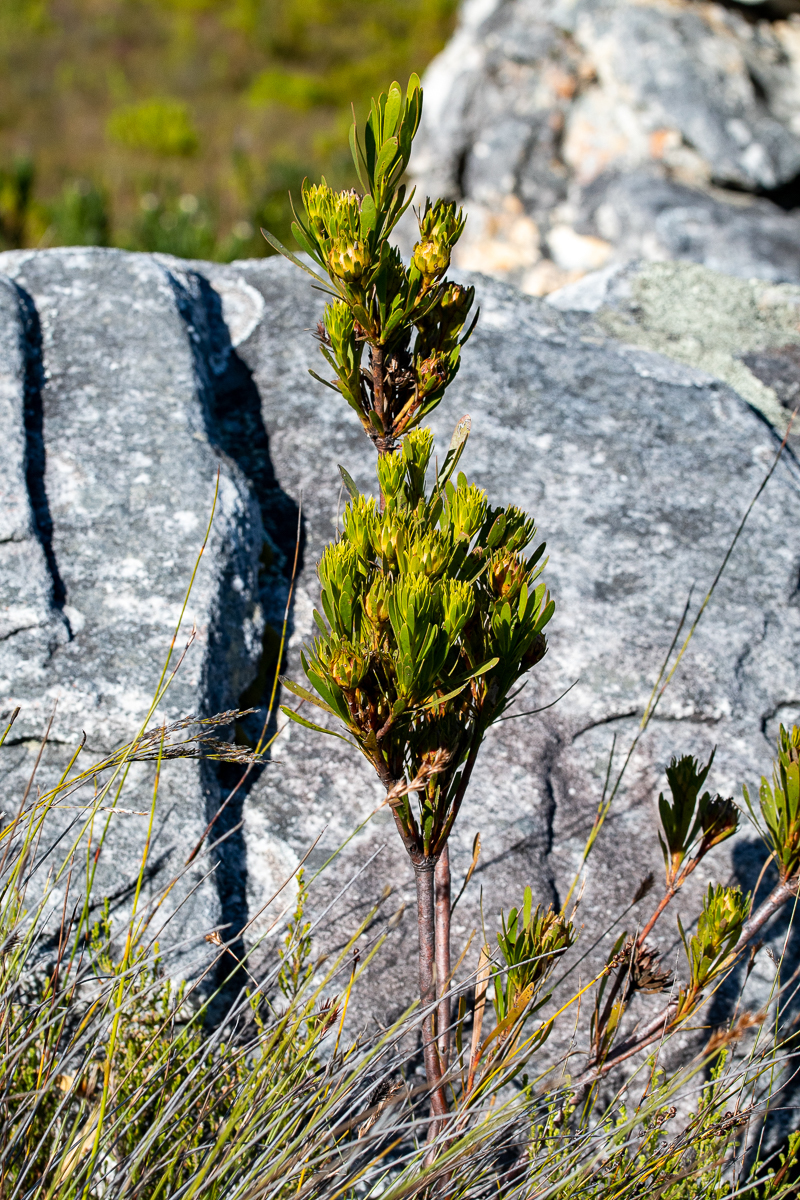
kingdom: Plantae
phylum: Tracheophyta
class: Magnoliopsida
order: Proteales
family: Proteaceae
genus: Aulax
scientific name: Aulax umbellata
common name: Broad-leaf featherbush
